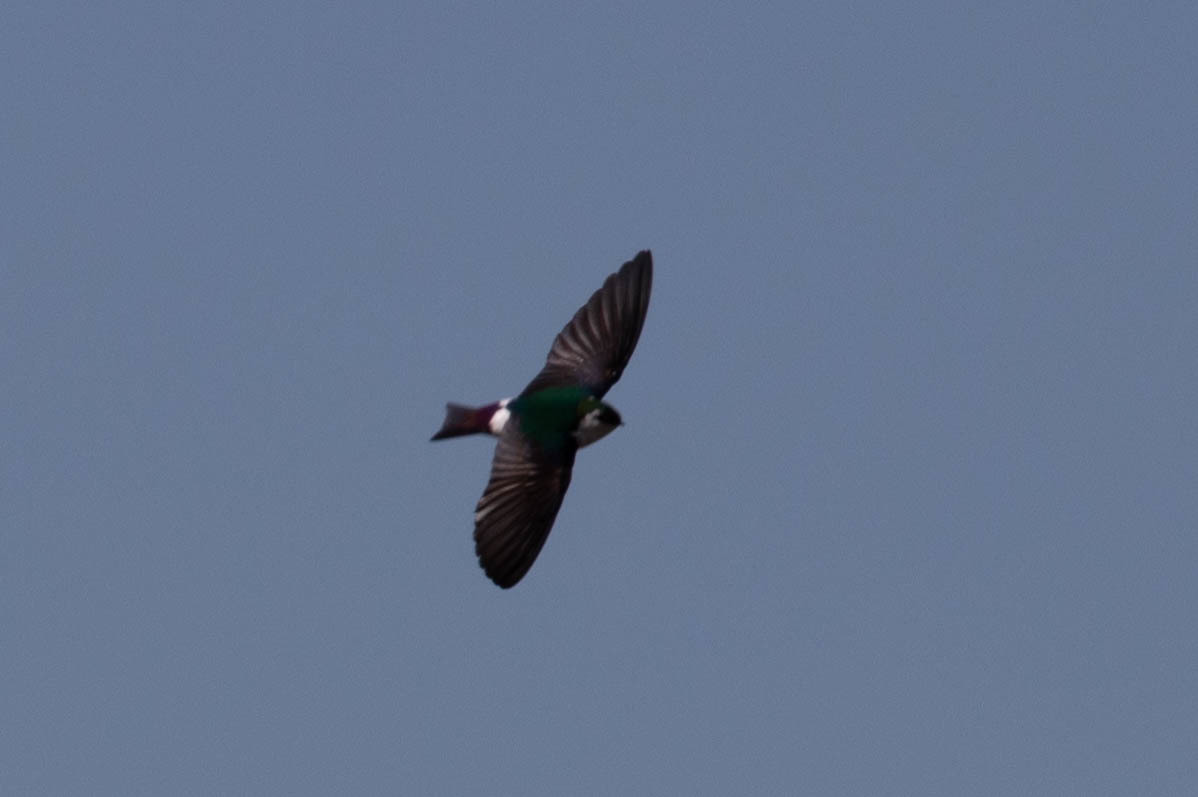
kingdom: Animalia
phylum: Chordata
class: Aves
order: Passeriformes
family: Hirundinidae
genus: Tachycineta
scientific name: Tachycineta thalassina
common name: Violet-green swallow
